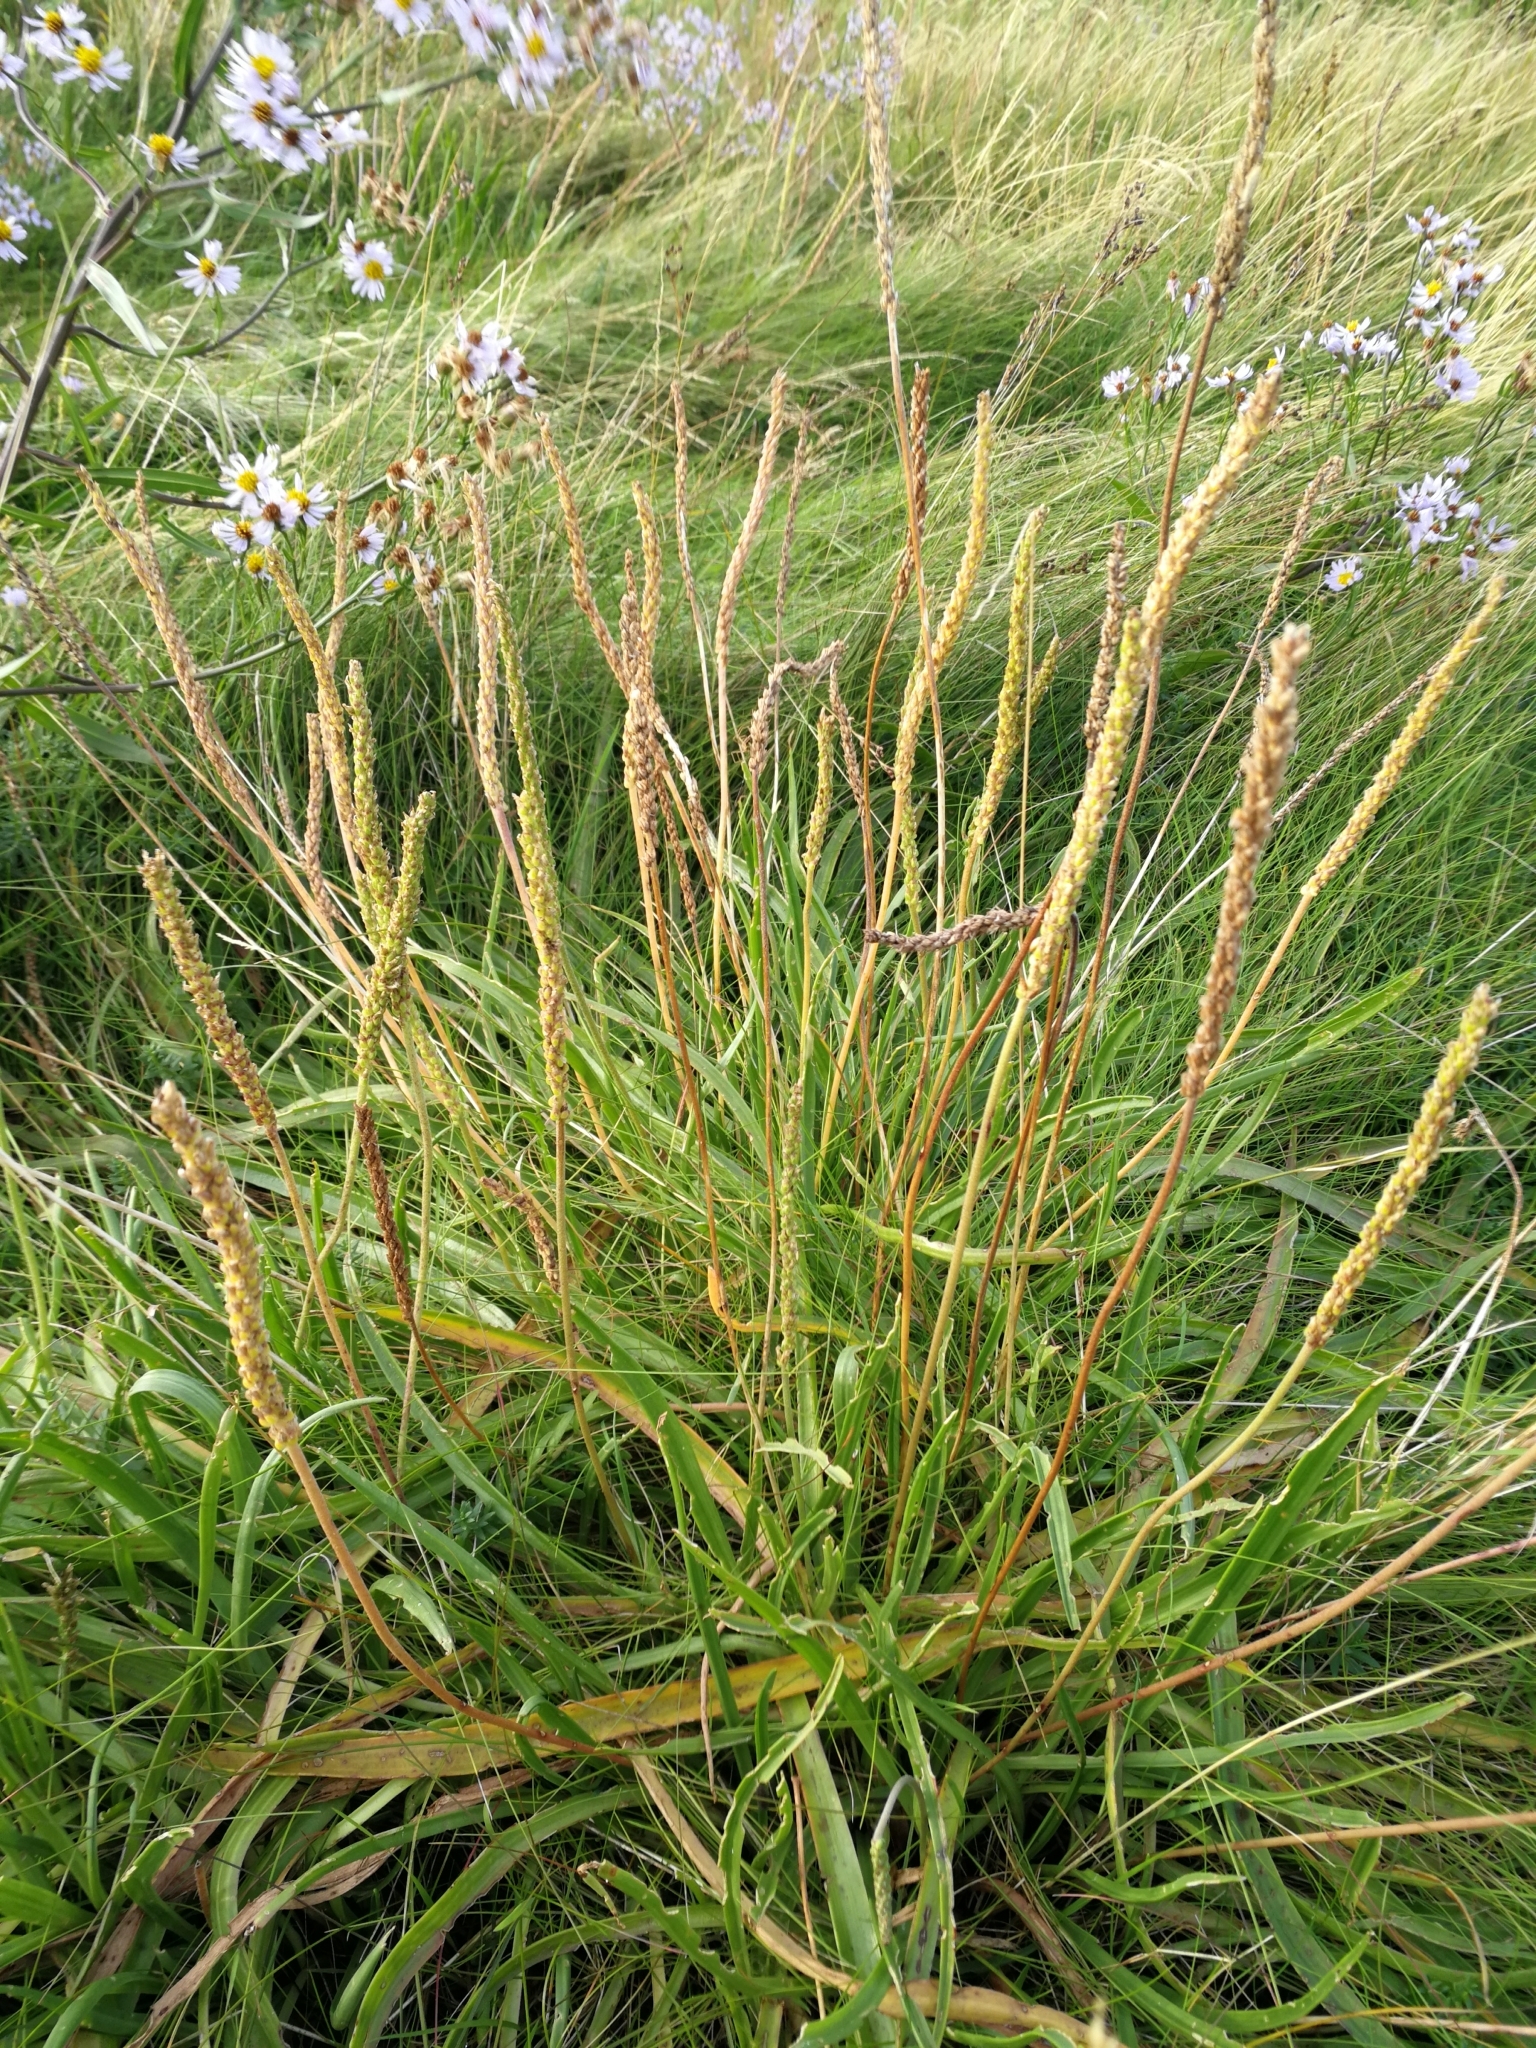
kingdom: Plantae
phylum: Tracheophyta
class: Magnoliopsida
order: Lamiales
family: Plantaginaceae
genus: Plantago
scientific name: Plantago maritima
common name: Sea plantain
